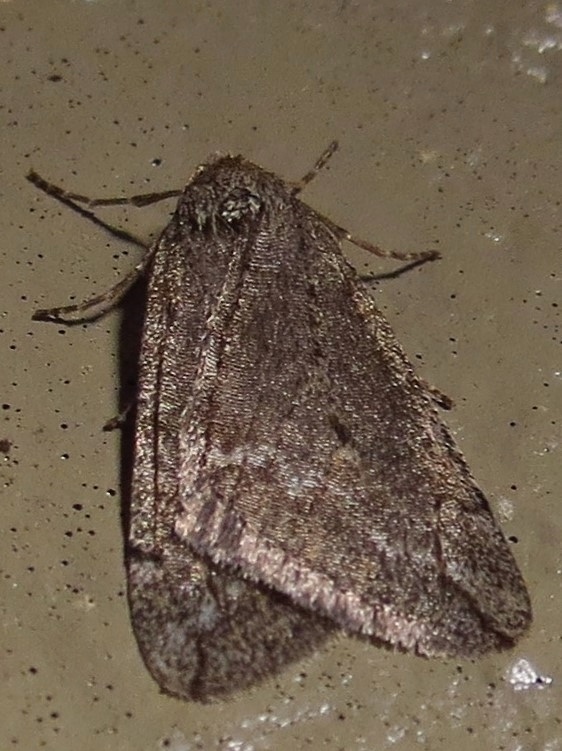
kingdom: Animalia
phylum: Arthropoda
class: Insecta
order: Lepidoptera
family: Geometridae
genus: Paleacrita
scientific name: Paleacrita vernata
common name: Spring cankerworm
